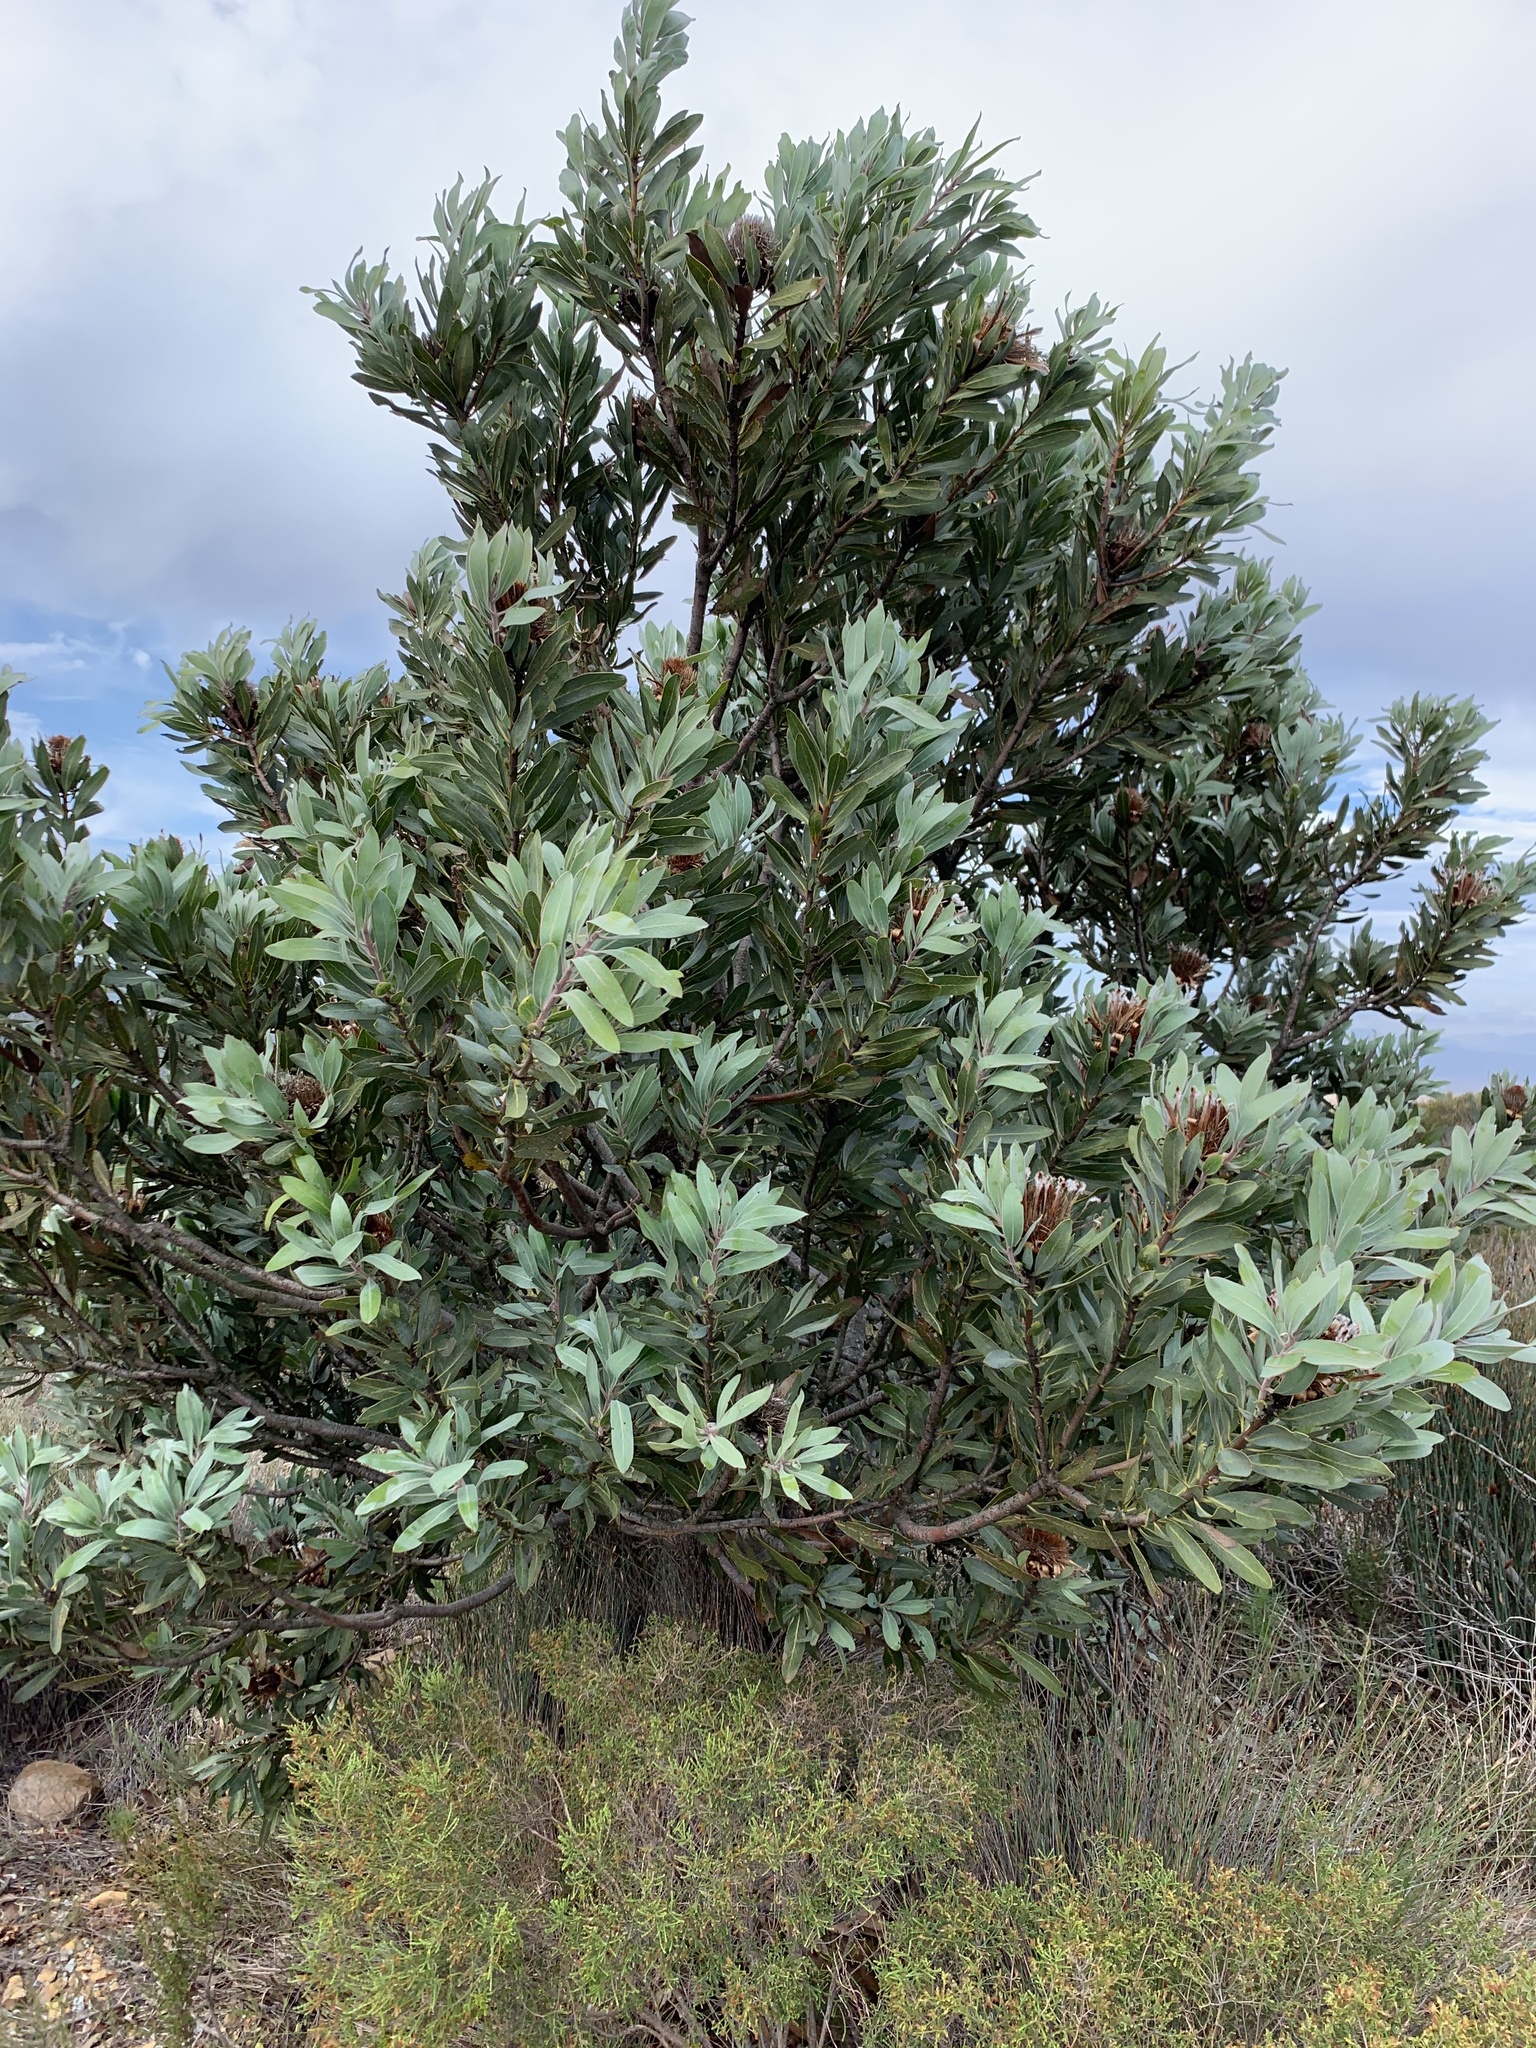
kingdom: Plantae
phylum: Tracheophyta
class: Magnoliopsida
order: Proteales
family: Proteaceae
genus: Protea
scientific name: Protea laurifolia
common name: Grey-leaf sugarbsh
